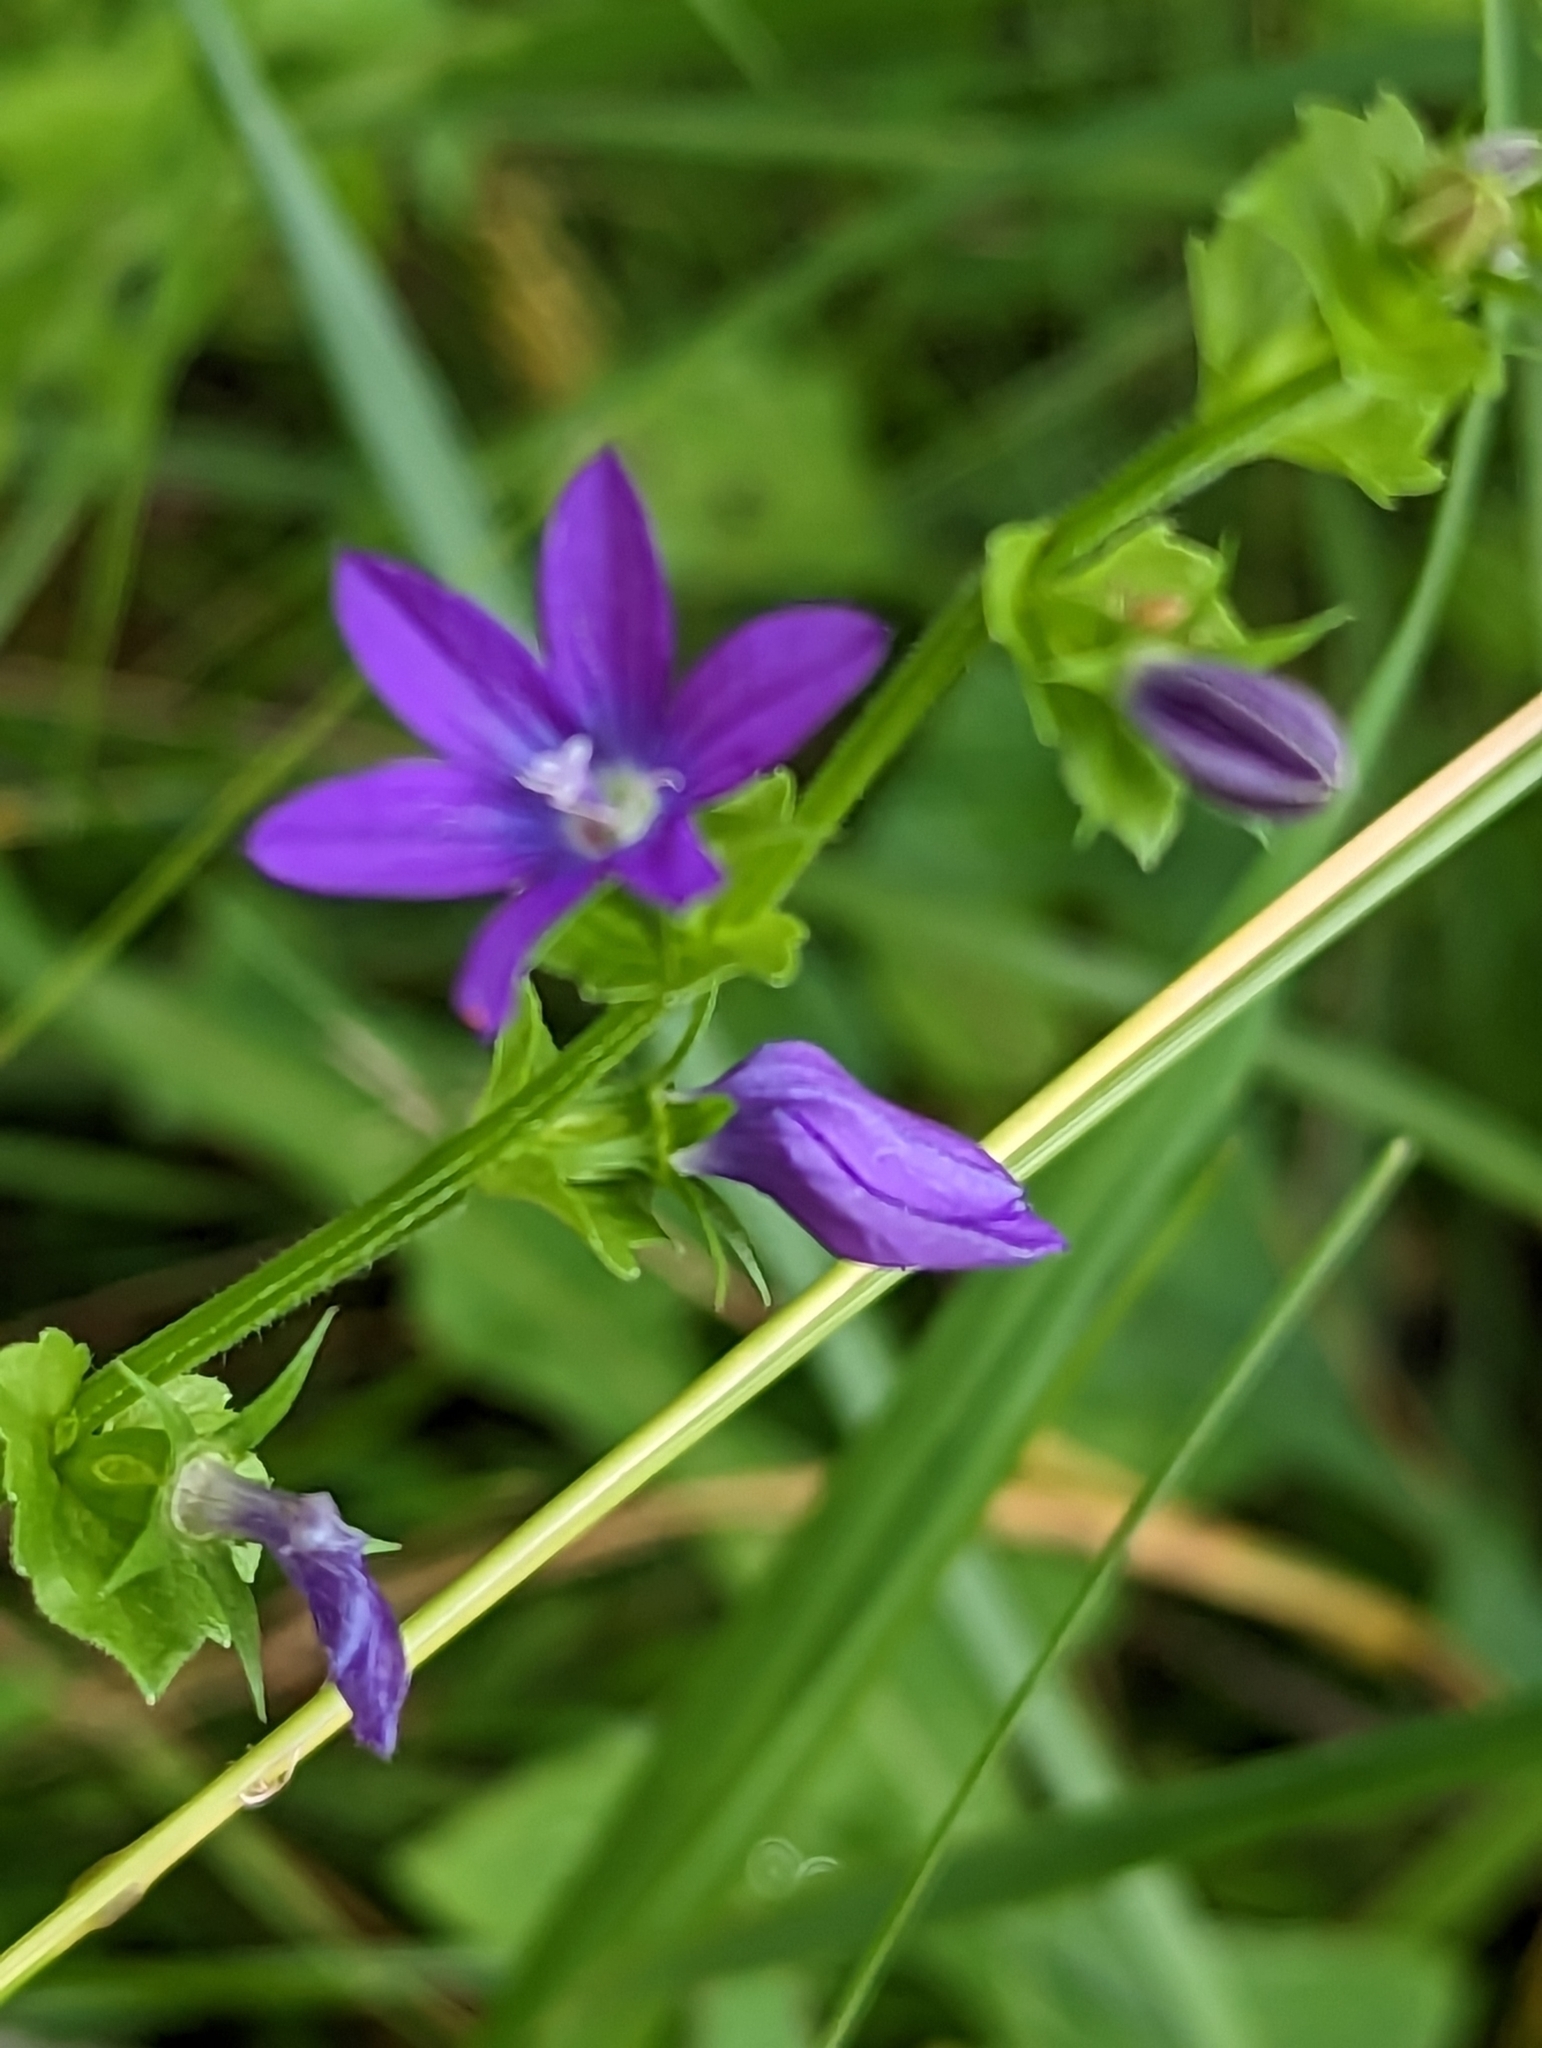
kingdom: Plantae
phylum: Tracheophyta
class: Magnoliopsida
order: Asterales
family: Campanulaceae
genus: Triodanis
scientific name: Triodanis perfoliata
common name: Clasping venus' looking-glass
